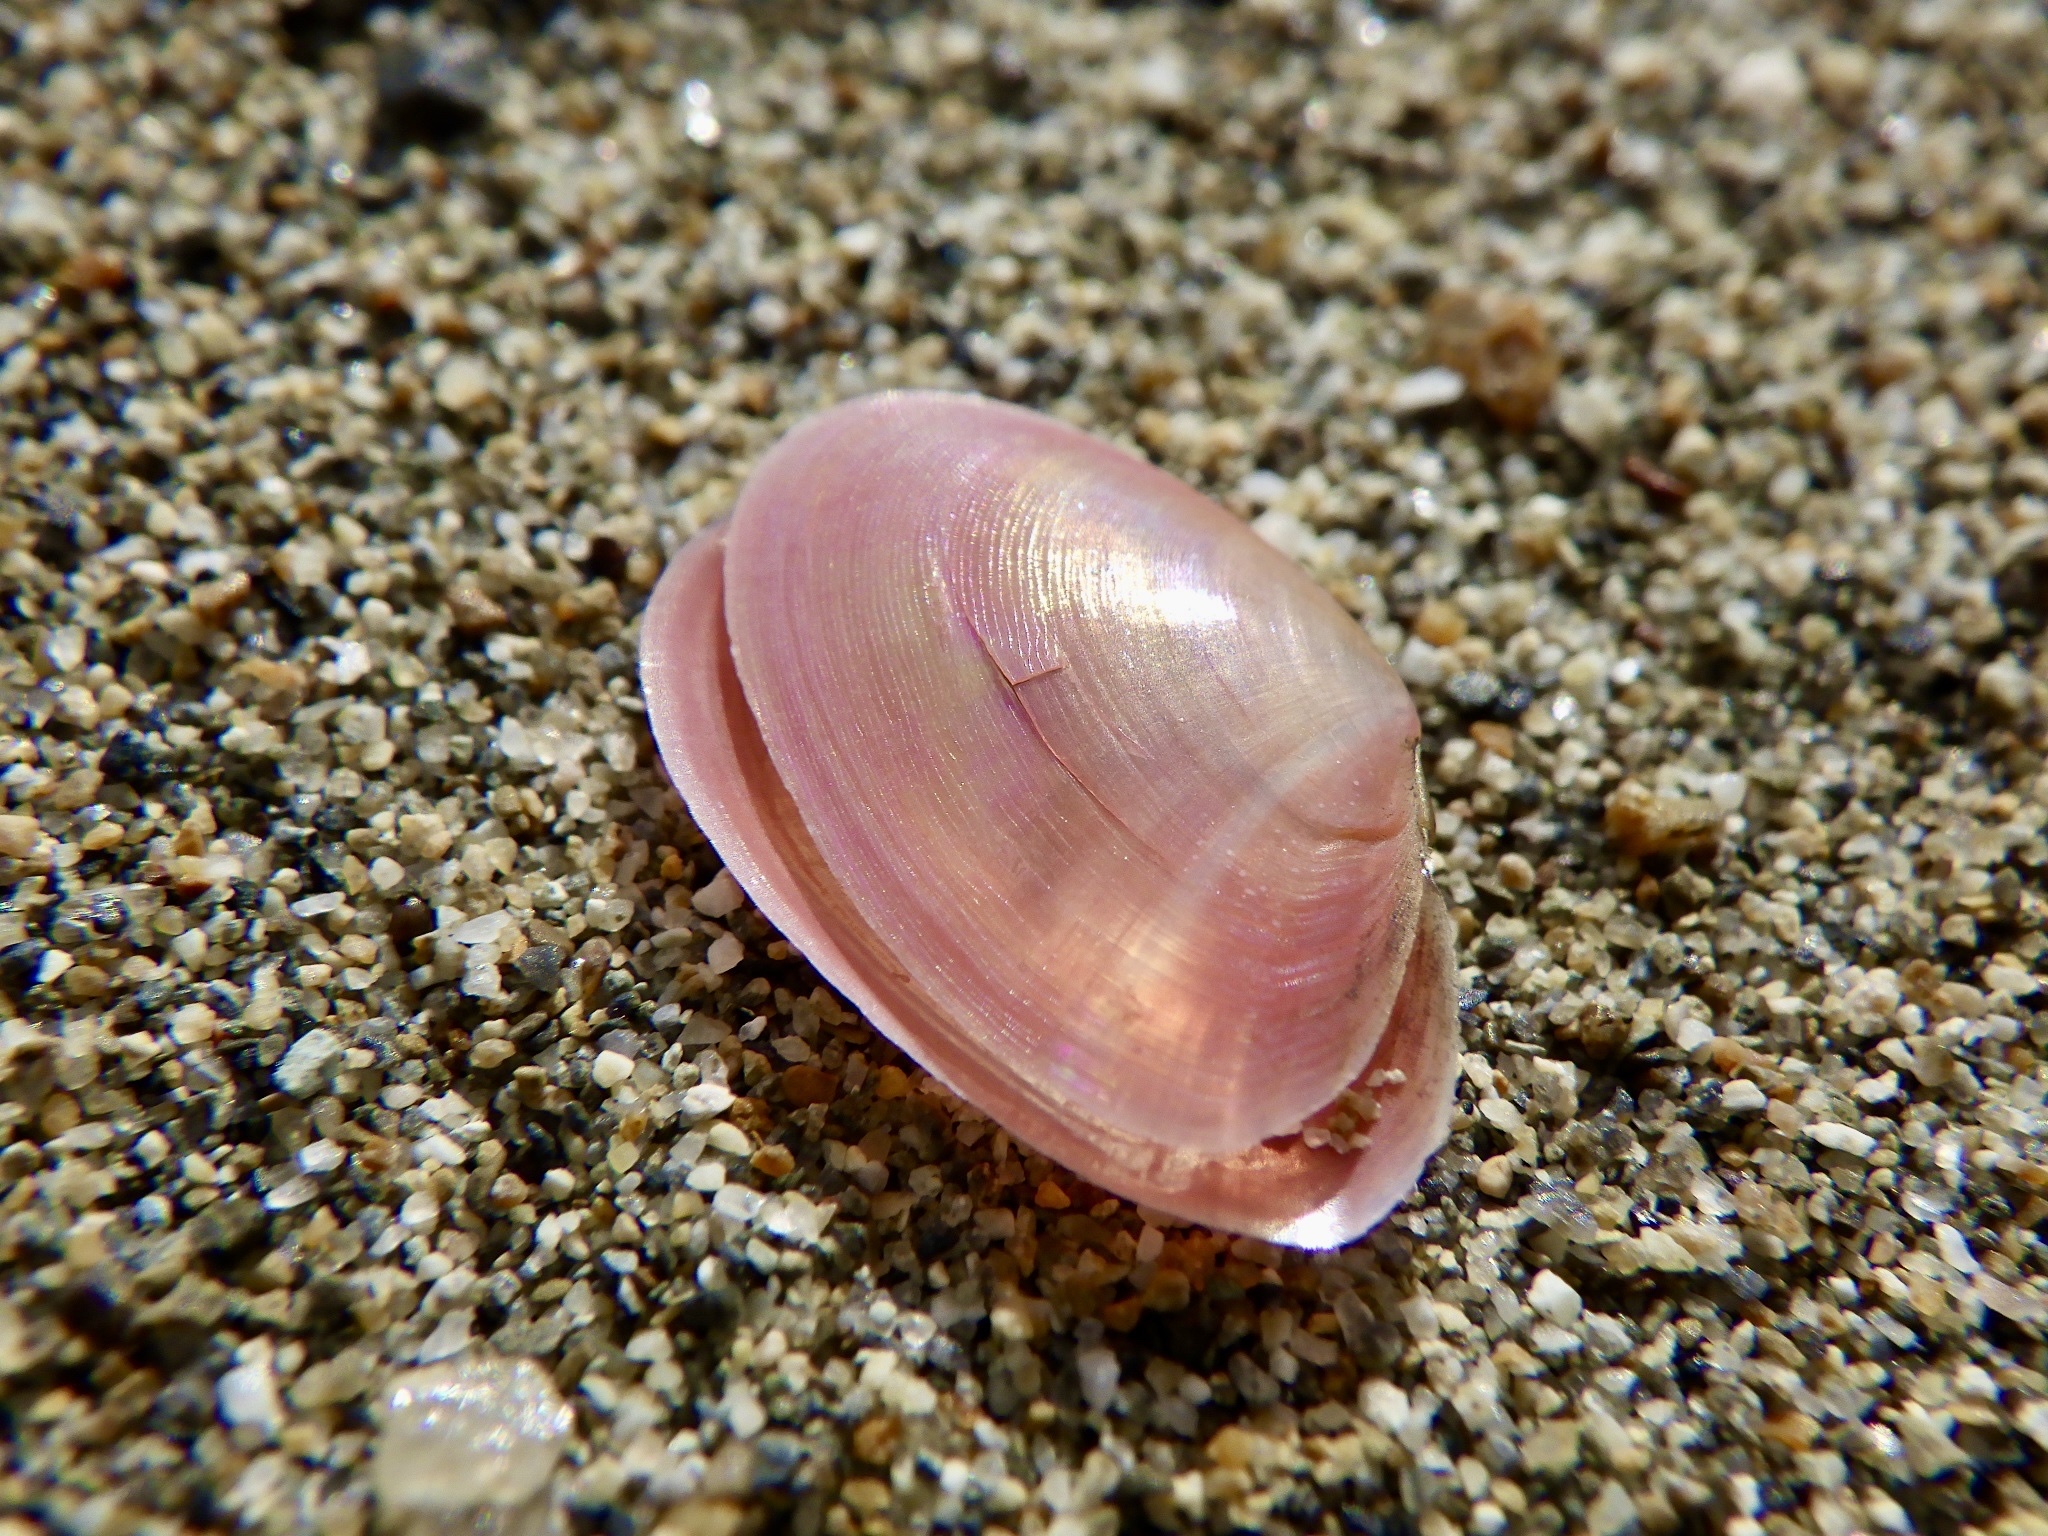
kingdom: Animalia
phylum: Mollusca
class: Bivalvia
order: Cardiida
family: Tellinidae
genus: Nitidotellina
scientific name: Nitidotellina valtonis
